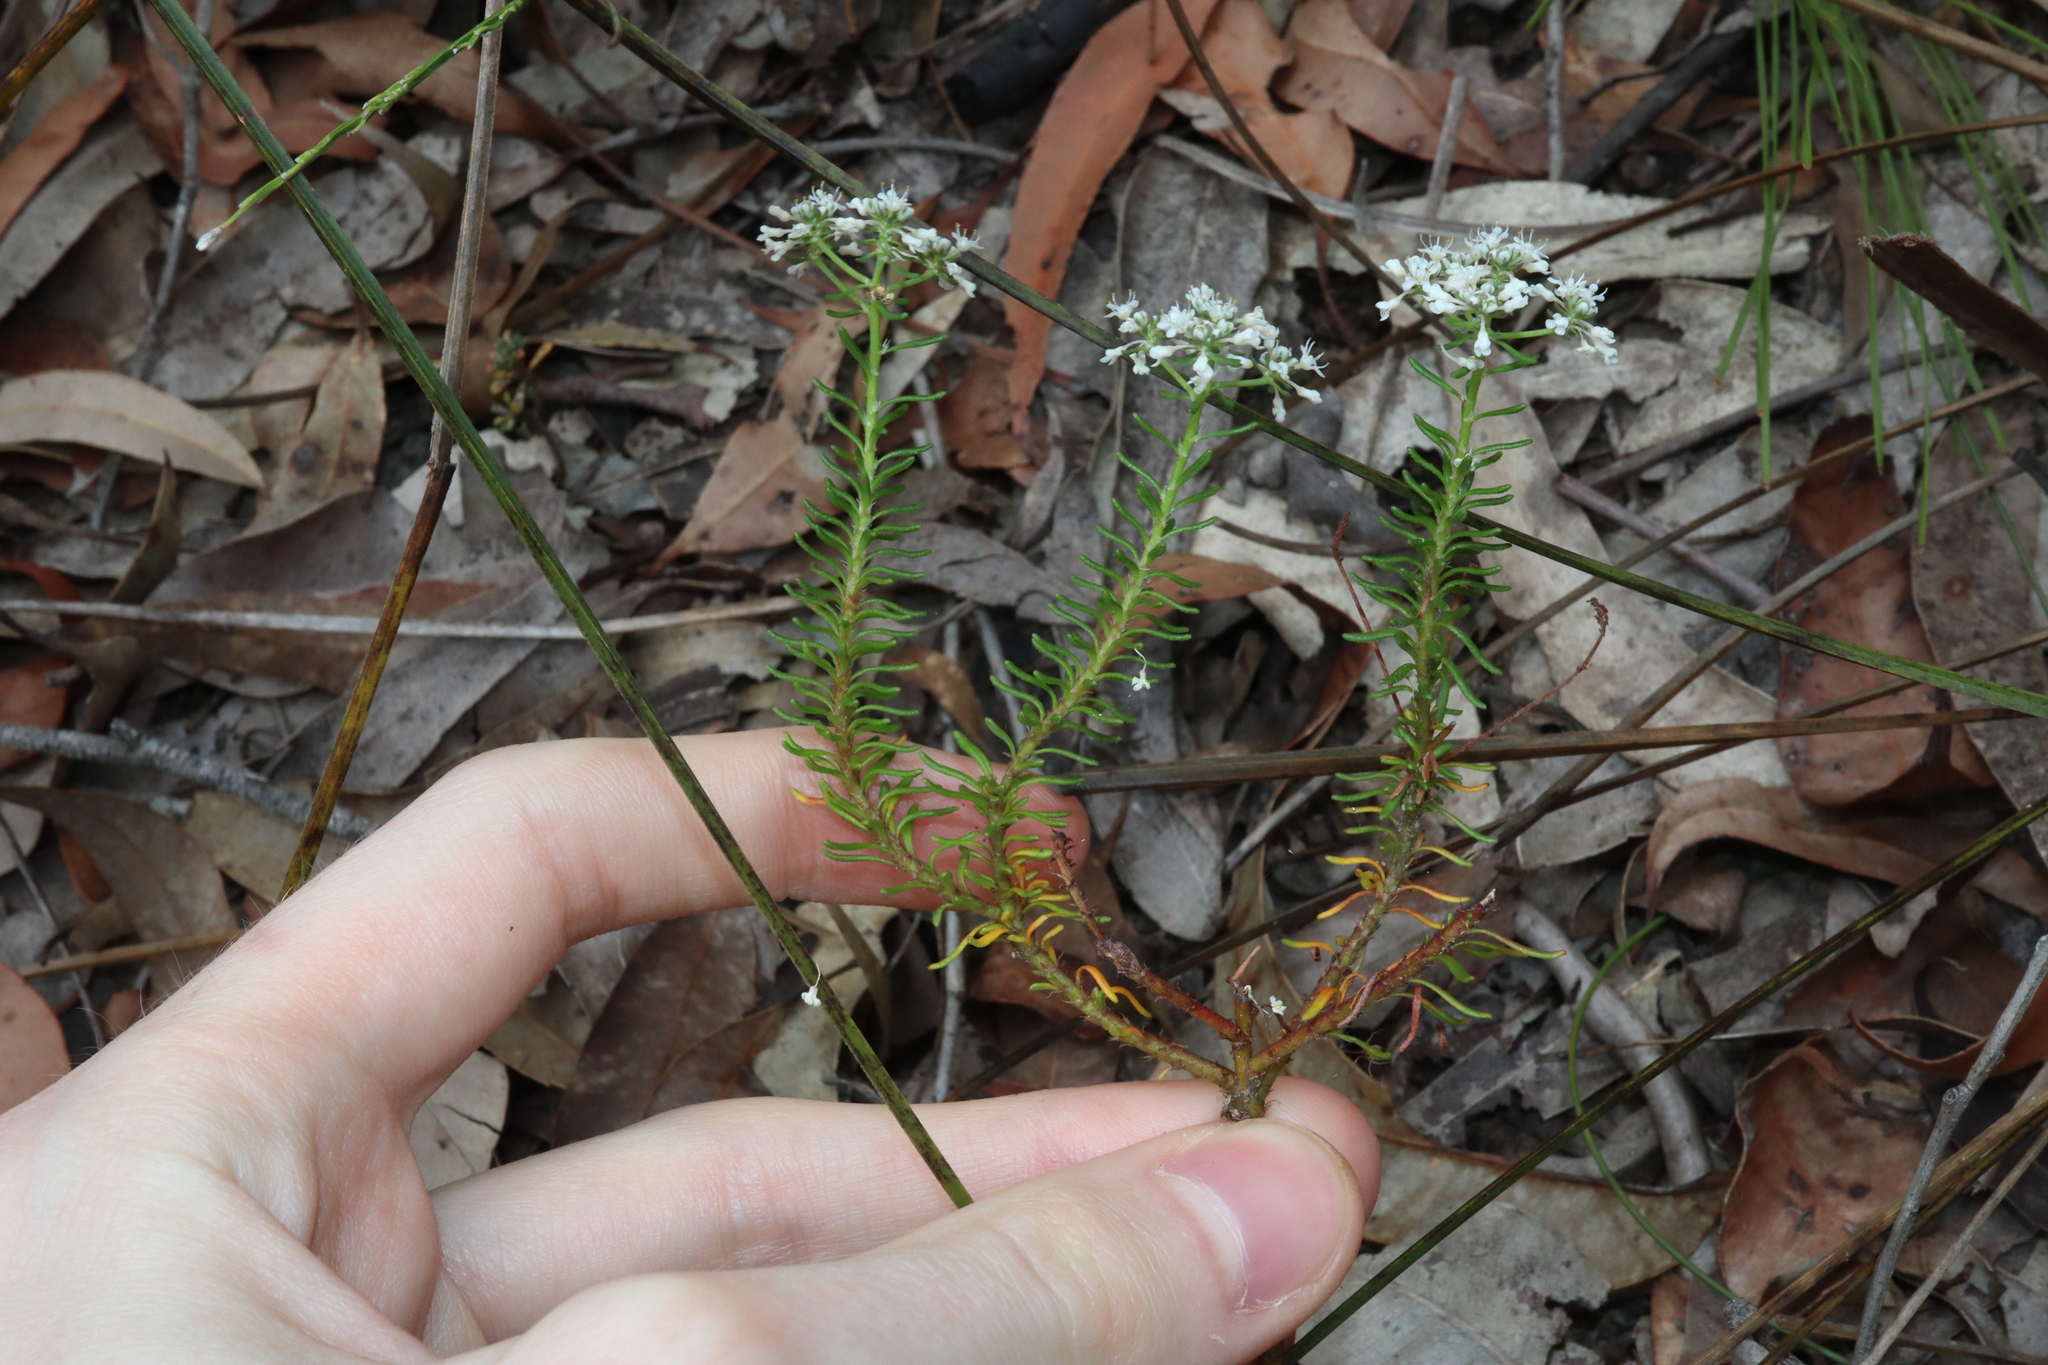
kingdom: Plantae
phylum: Tracheophyta
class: Magnoliopsida
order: Malpighiales
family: Phyllanthaceae
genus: Poranthera
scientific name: Poranthera ericifolia
